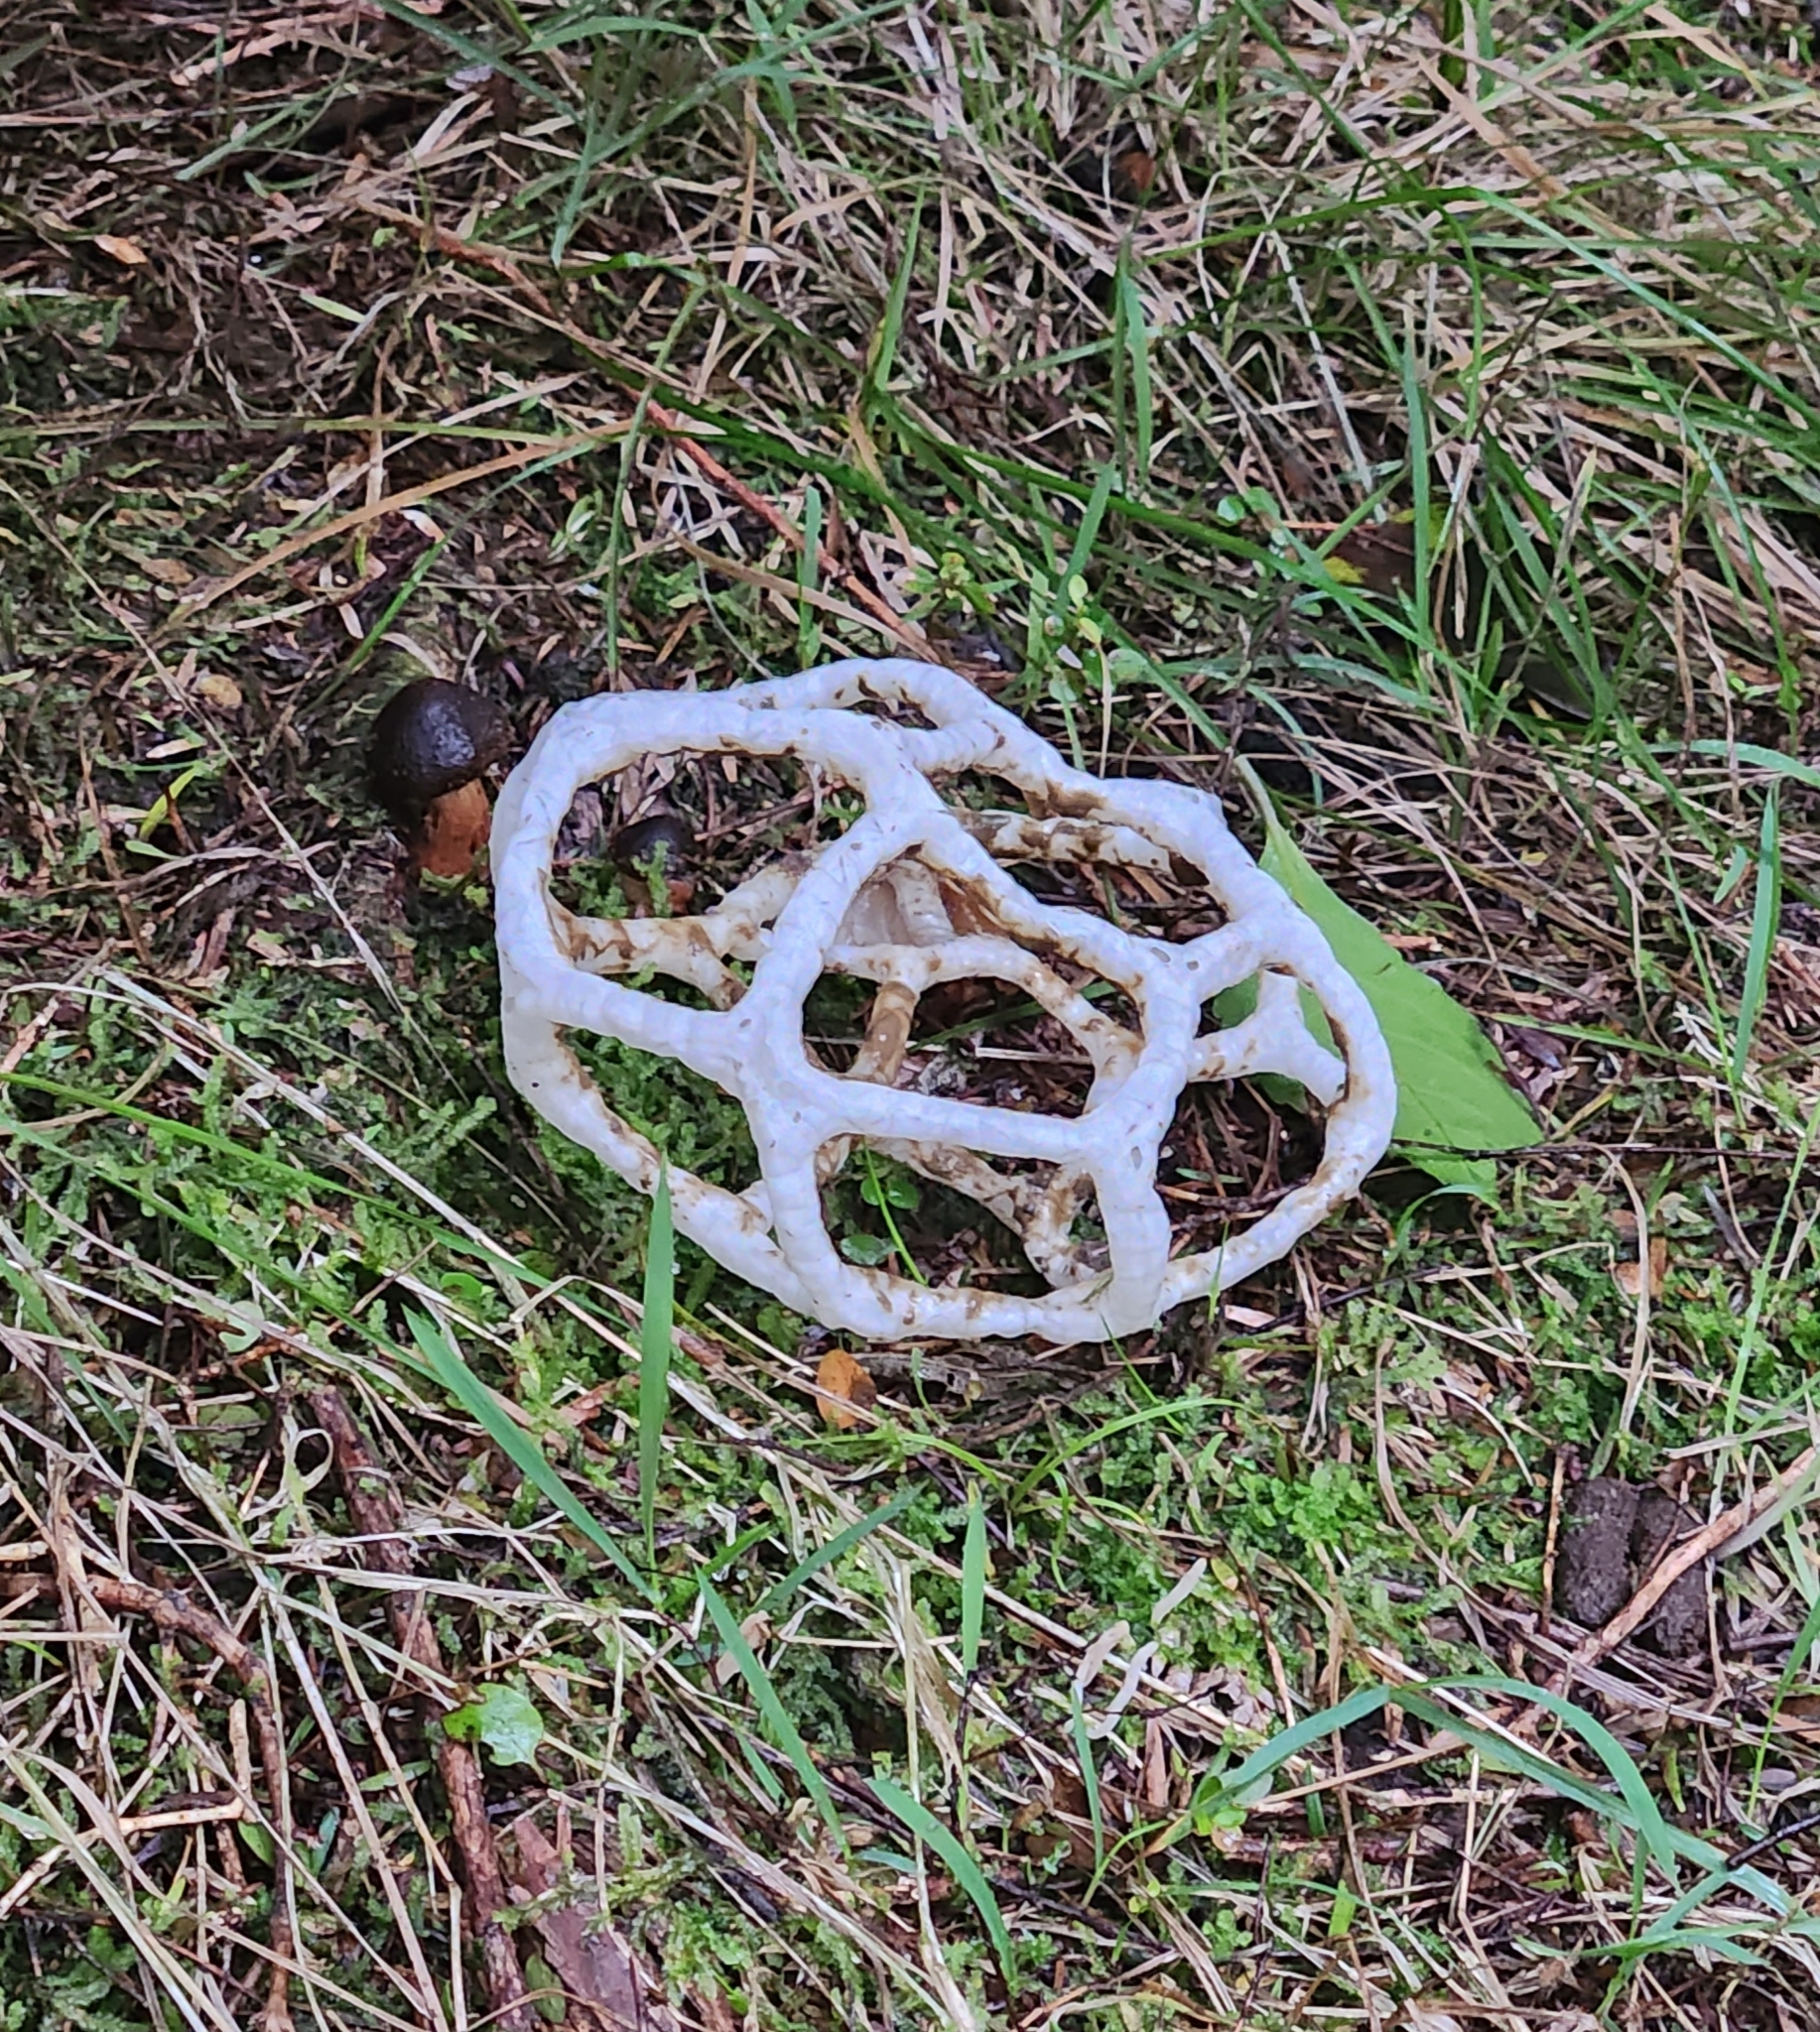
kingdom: Fungi
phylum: Basidiomycota
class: Agaricomycetes
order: Phallales
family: Phallaceae
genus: Ileodictyon
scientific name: Ileodictyon cibarium
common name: Basket fungus
